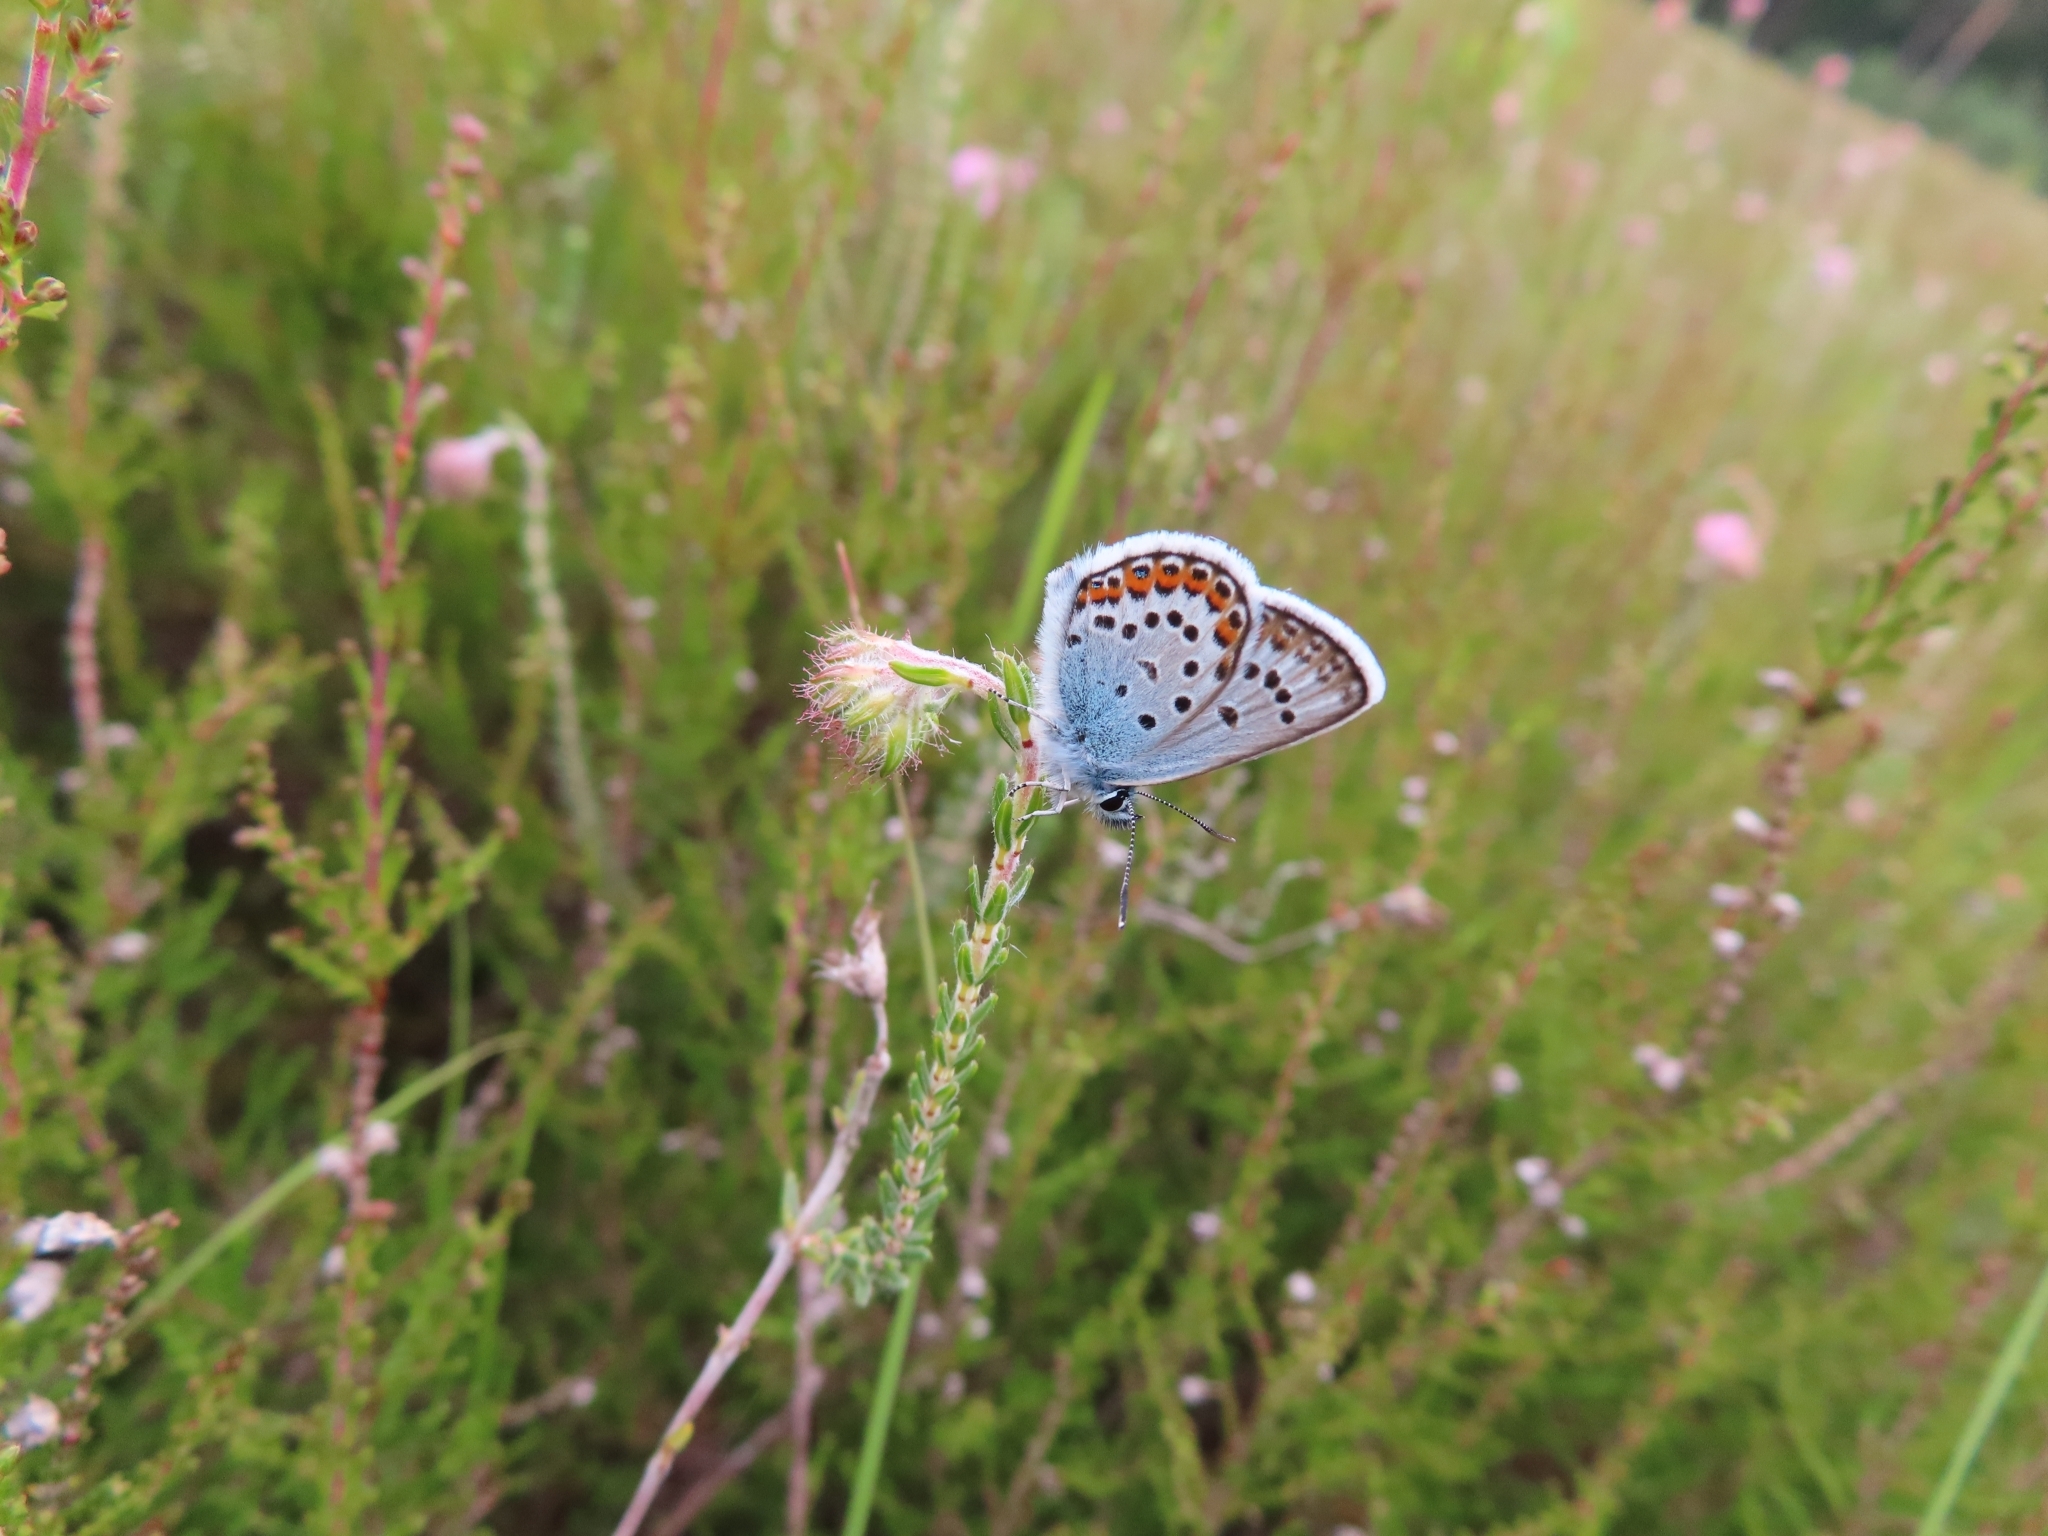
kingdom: Animalia
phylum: Arthropoda
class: Insecta
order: Lepidoptera
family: Lycaenidae
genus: Plebejus
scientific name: Plebejus argus
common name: Silver-studded blue
